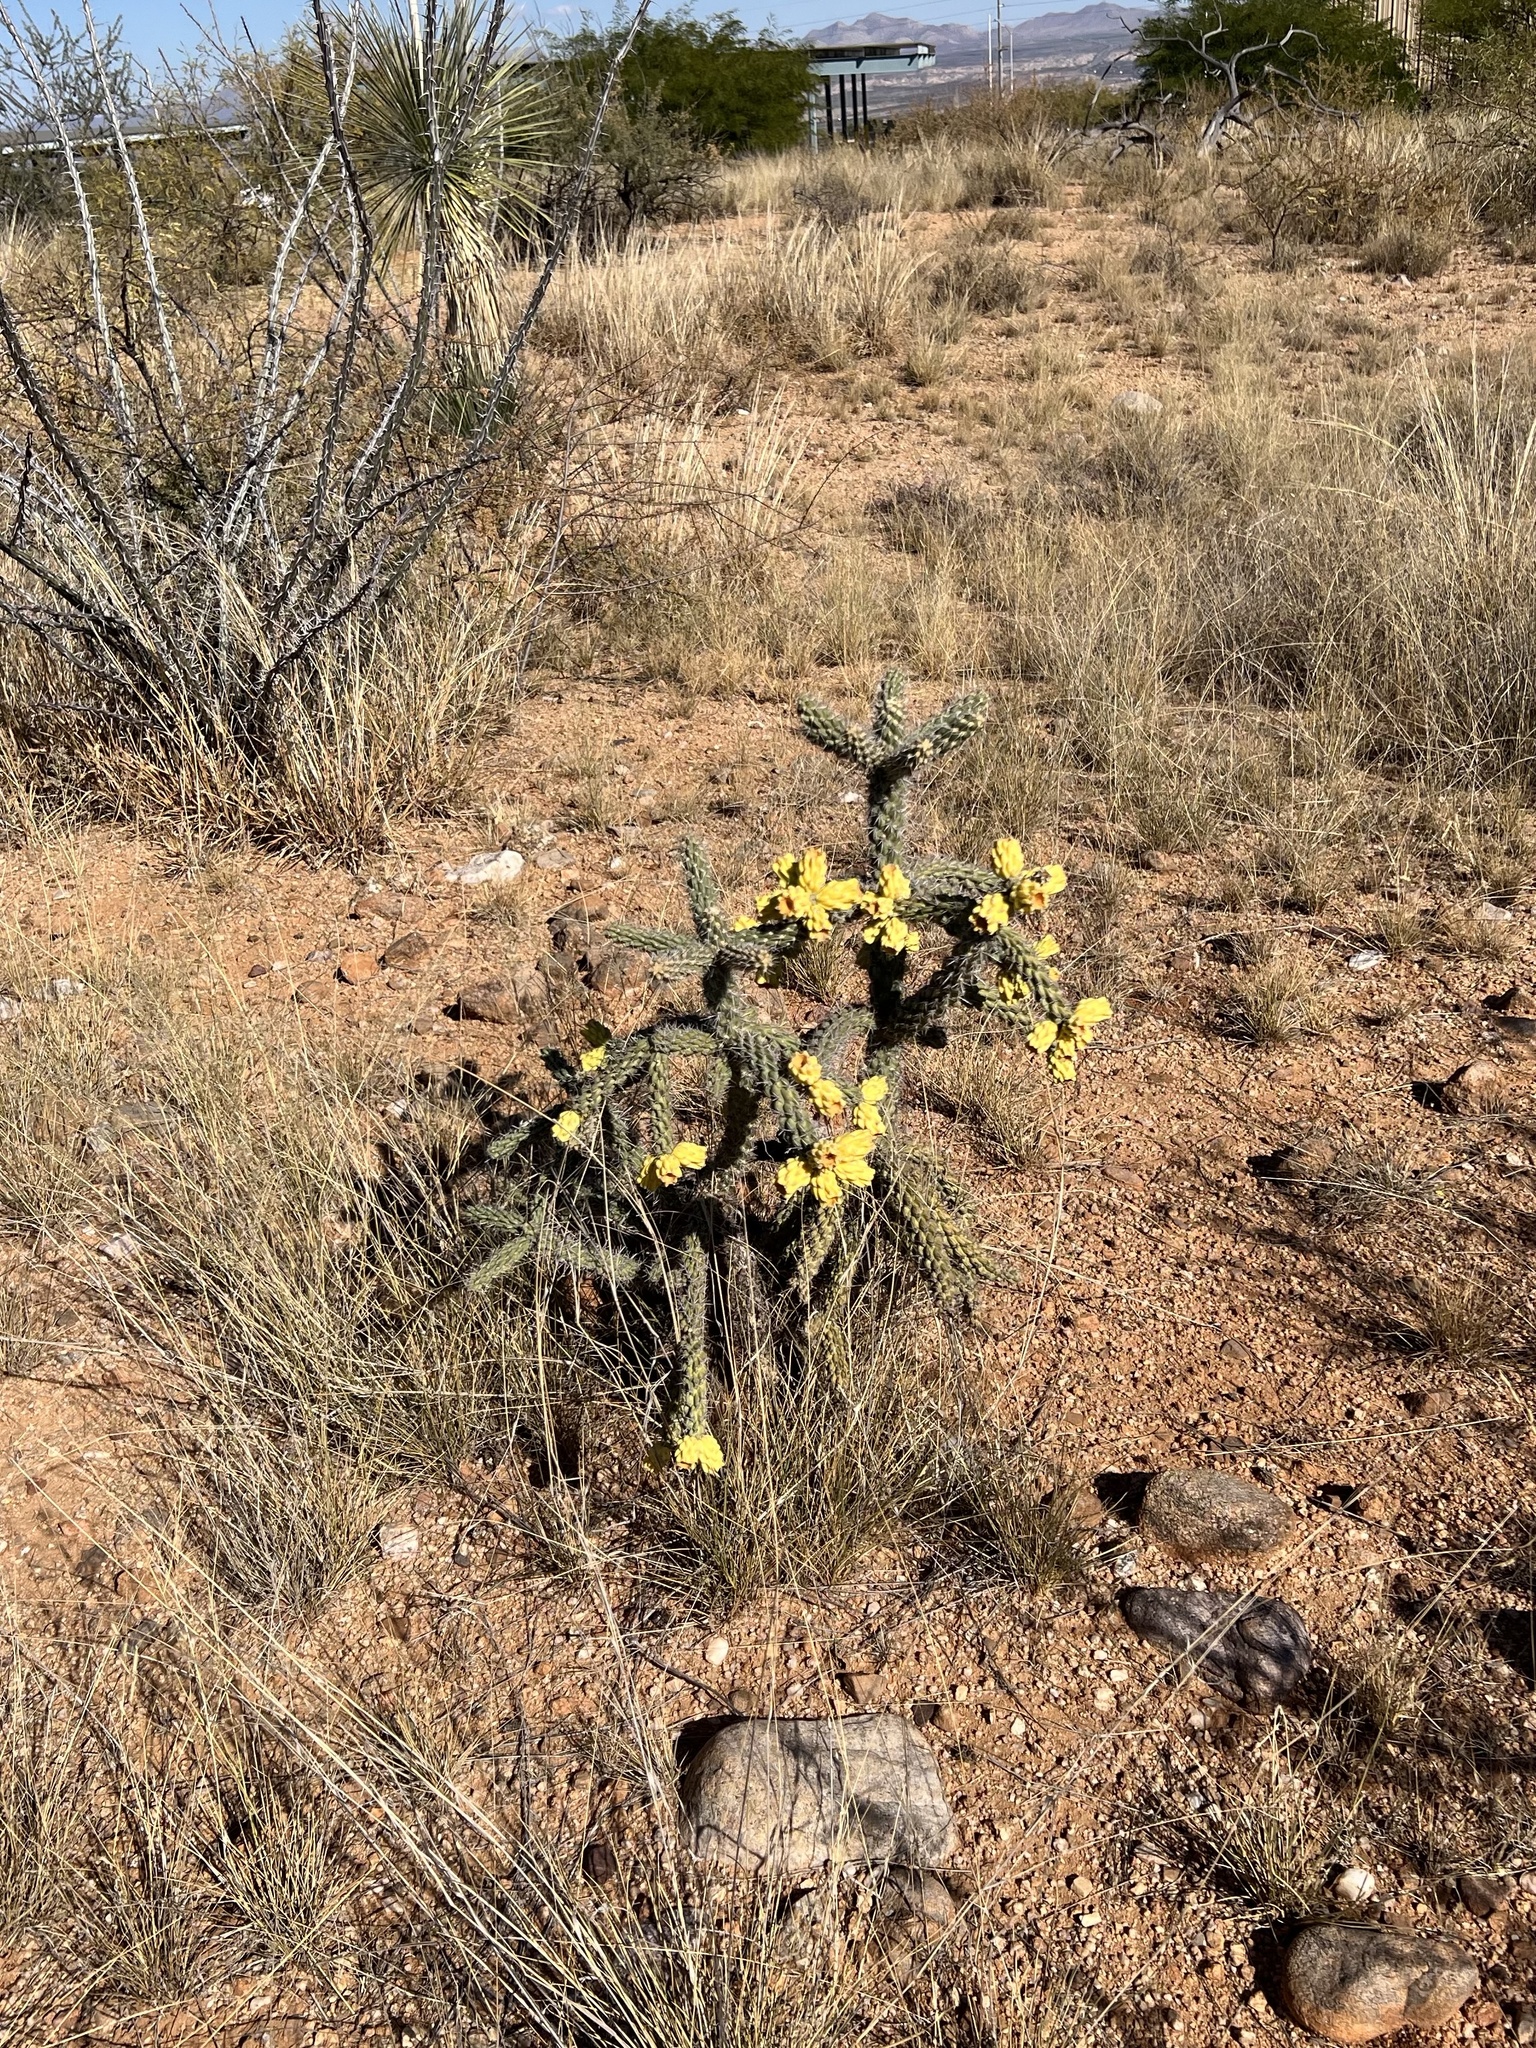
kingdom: Plantae
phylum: Tracheophyta
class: Magnoliopsida
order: Caryophyllales
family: Cactaceae
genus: Cylindropuntia
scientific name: Cylindropuntia imbricata
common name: Candelabrum cactus
